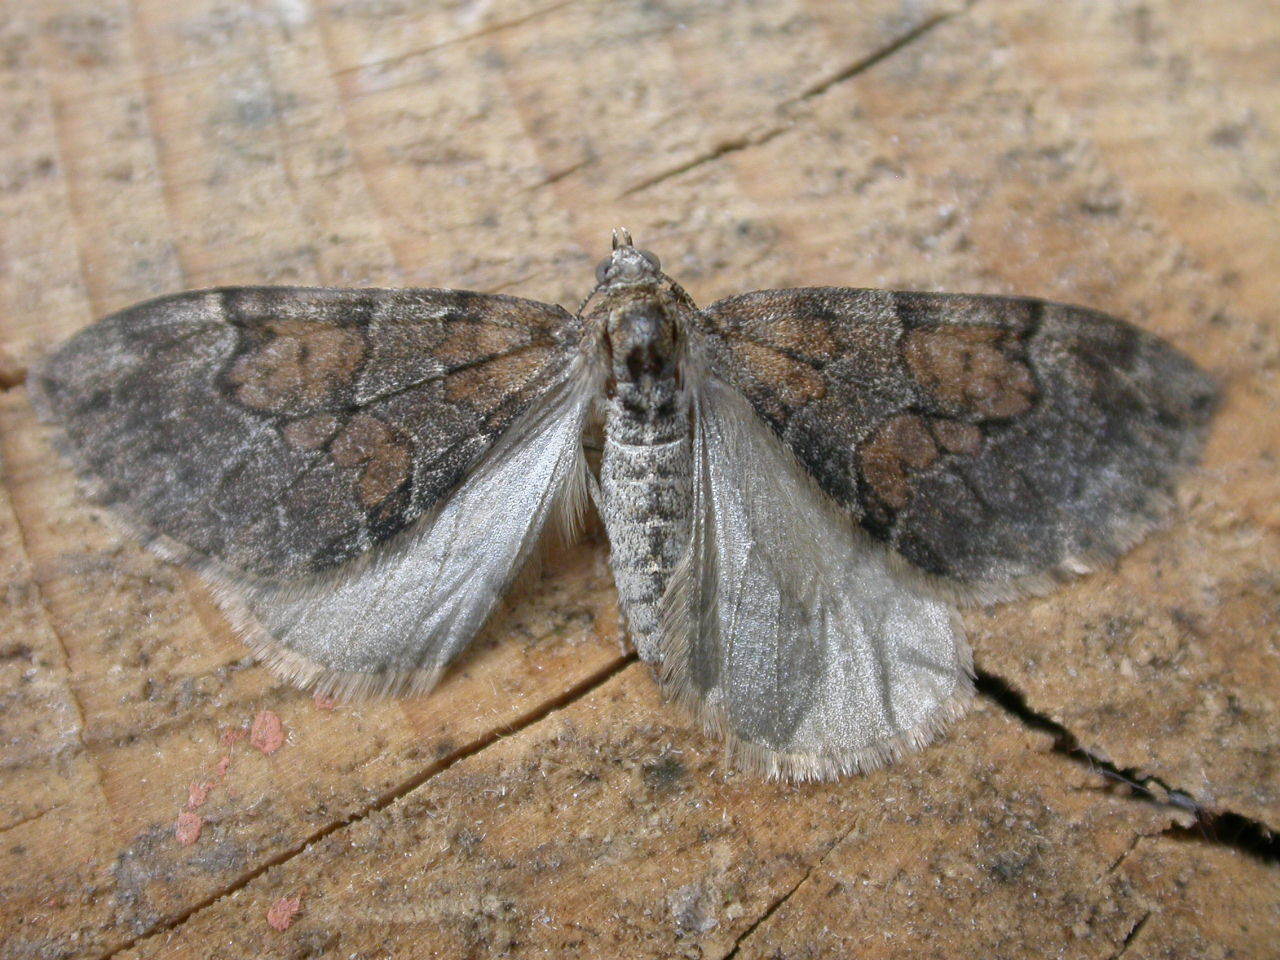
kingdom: Animalia
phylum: Arthropoda
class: Insecta
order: Lepidoptera
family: Geometridae
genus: Thera
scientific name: Thera obeliscata
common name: Grey pine carpet
